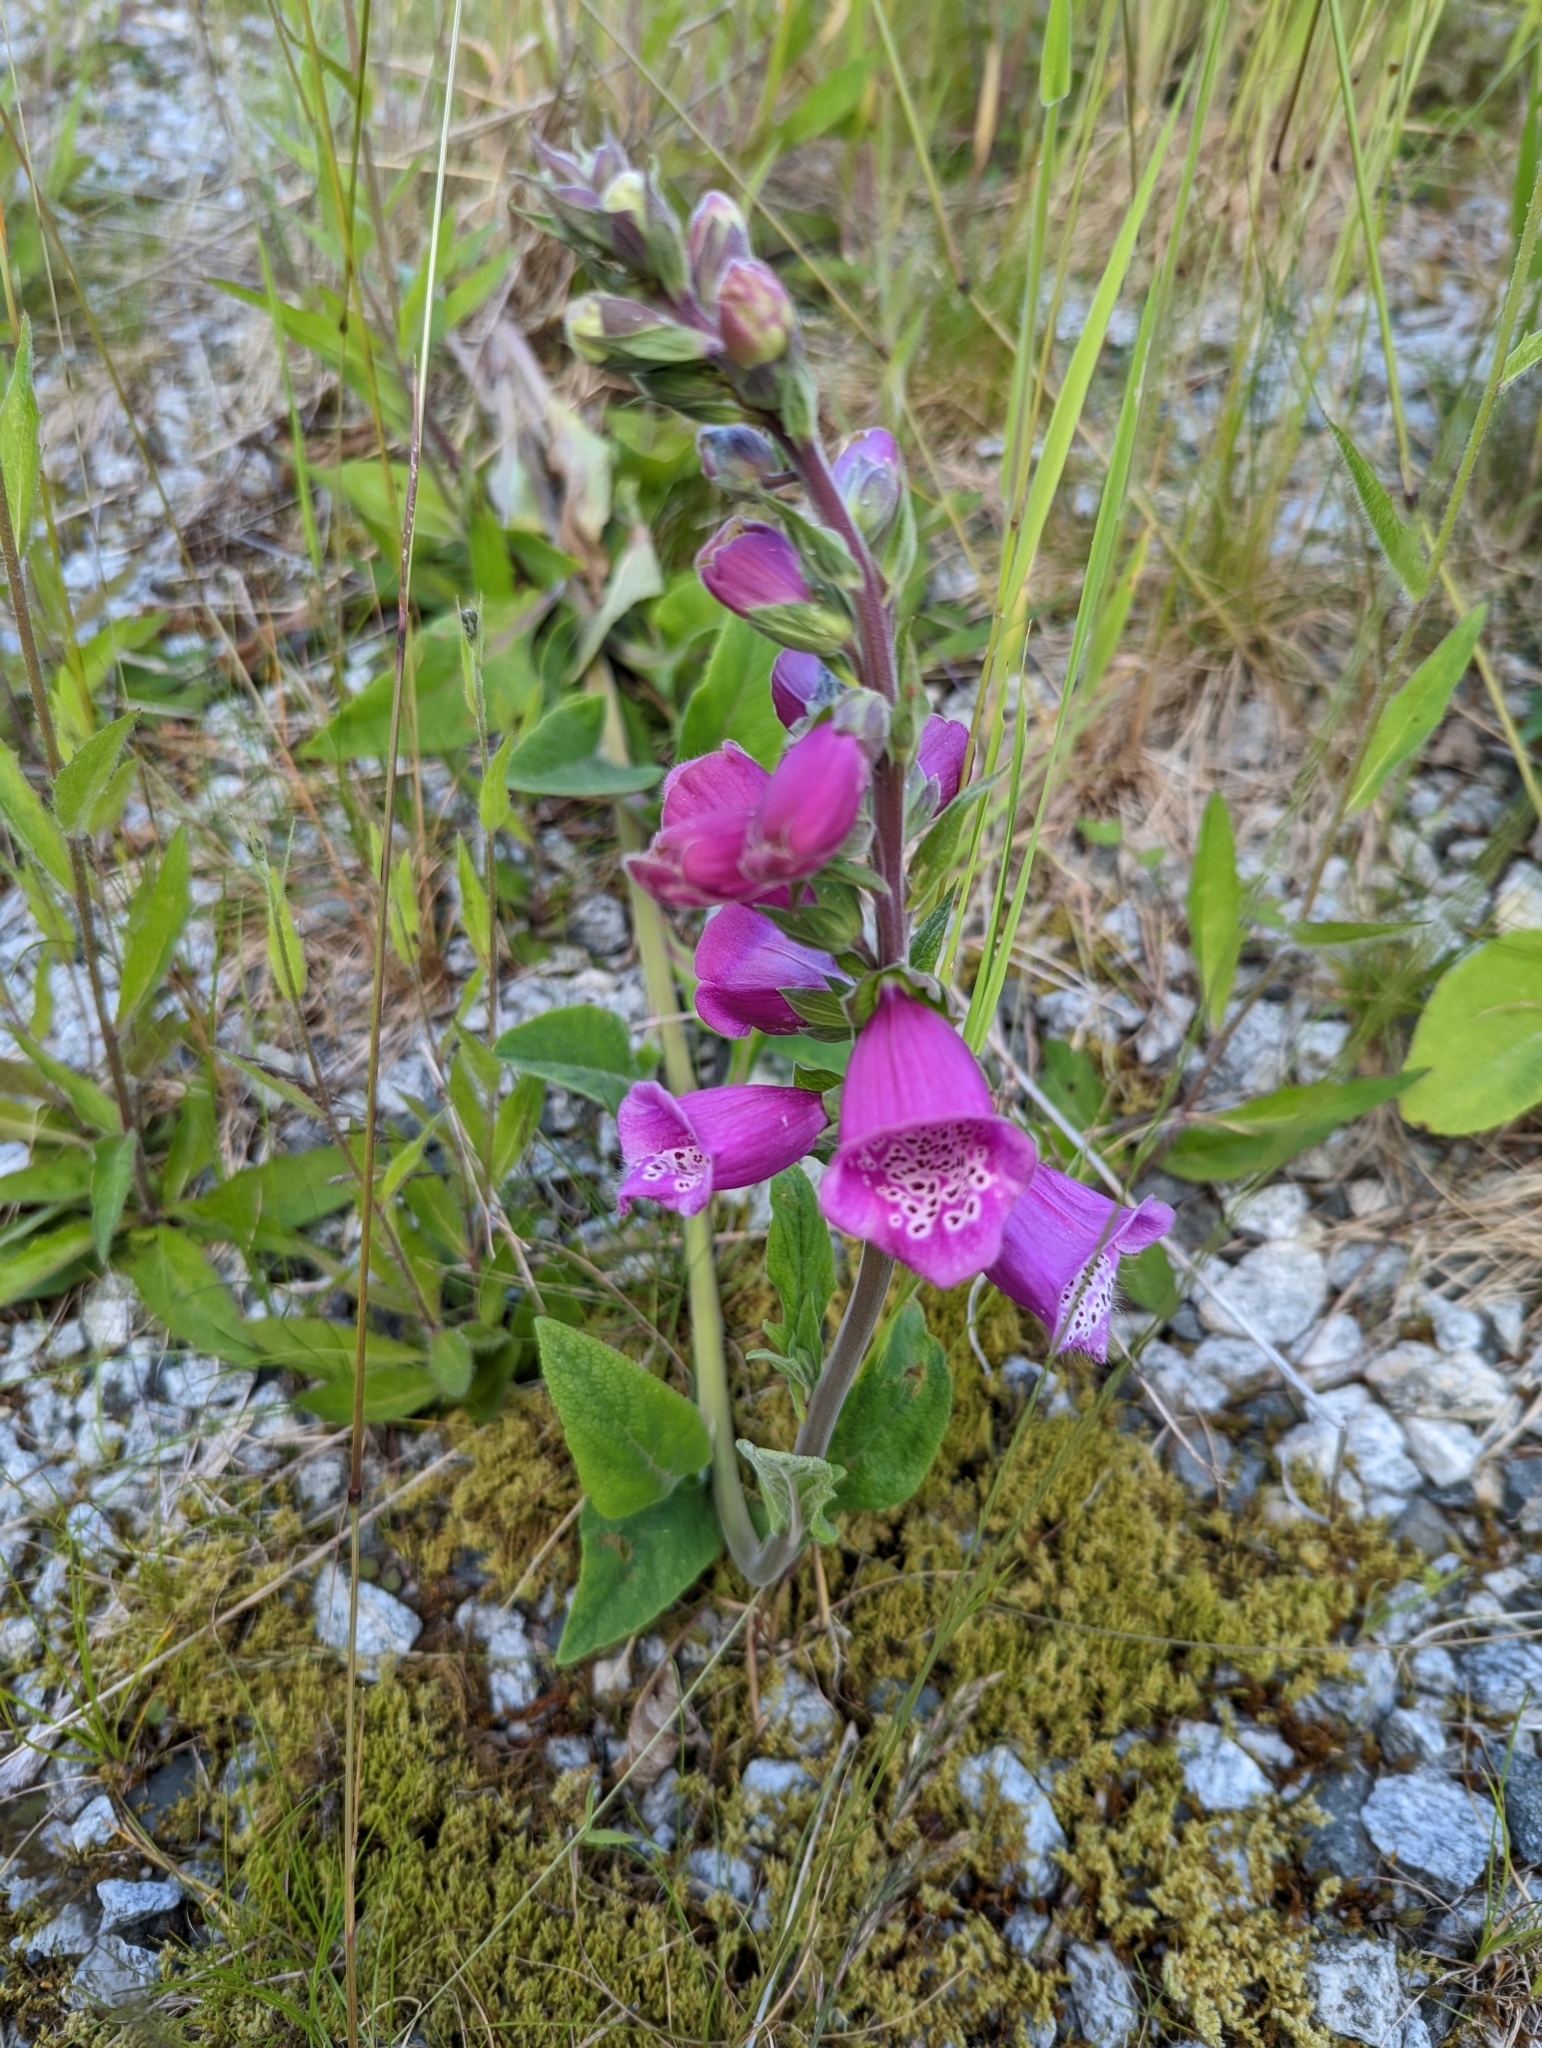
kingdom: Plantae
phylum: Tracheophyta
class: Magnoliopsida
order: Lamiales
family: Plantaginaceae
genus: Digitalis
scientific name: Digitalis purpurea
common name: Foxglove
